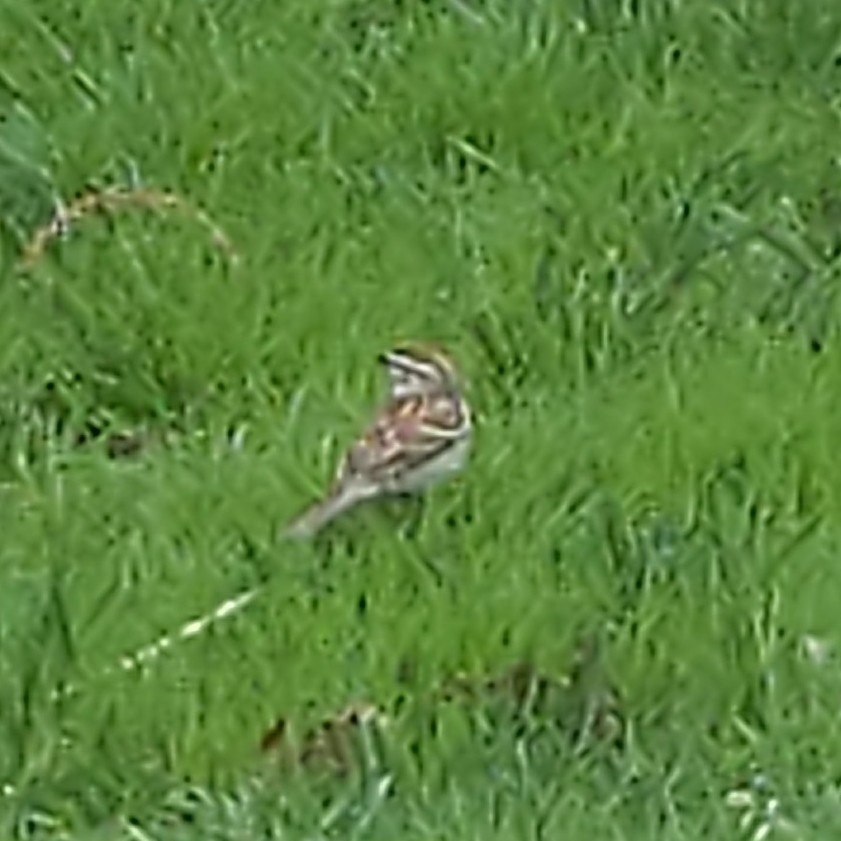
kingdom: Animalia
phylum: Chordata
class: Aves
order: Passeriformes
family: Passerellidae
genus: Spizella
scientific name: Spizella passerina
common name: Chipping sparrow
